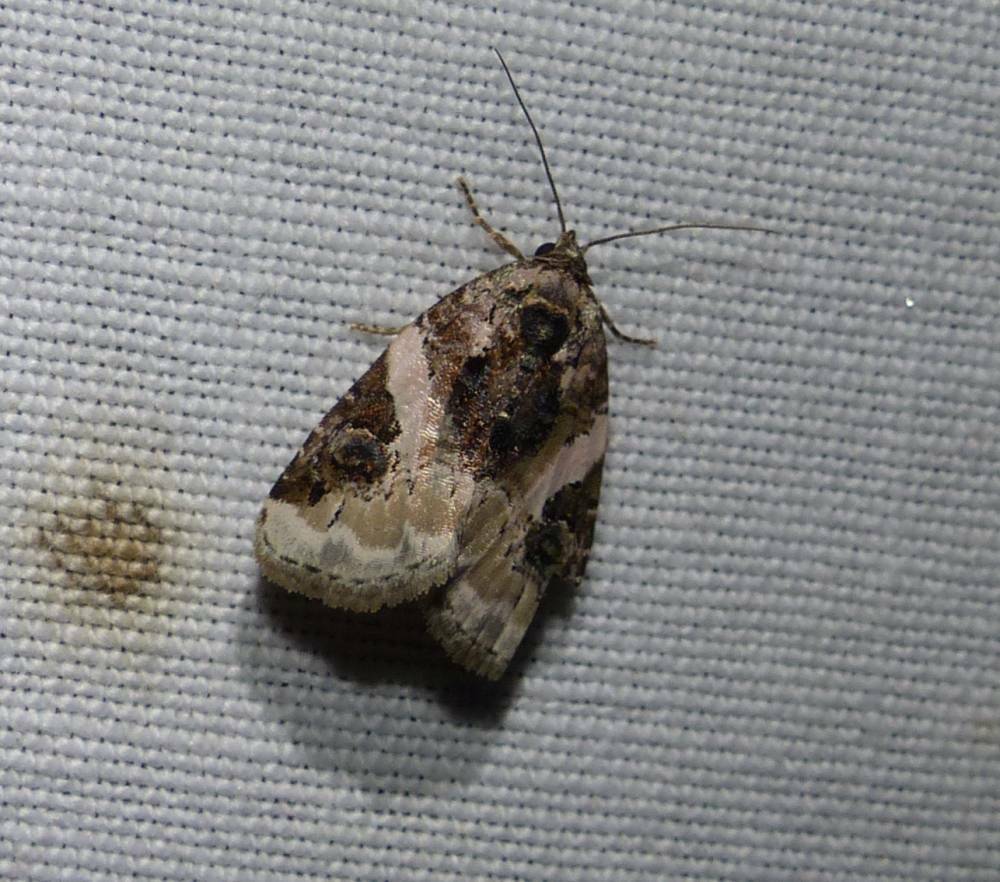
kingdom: Animalia
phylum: Arthropoda
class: Insecta
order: Lepidoptera
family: Noctuidae
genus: Pseudeustrotia
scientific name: Pseudeustrotia carneola
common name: Pink-barred lithacodia moth
